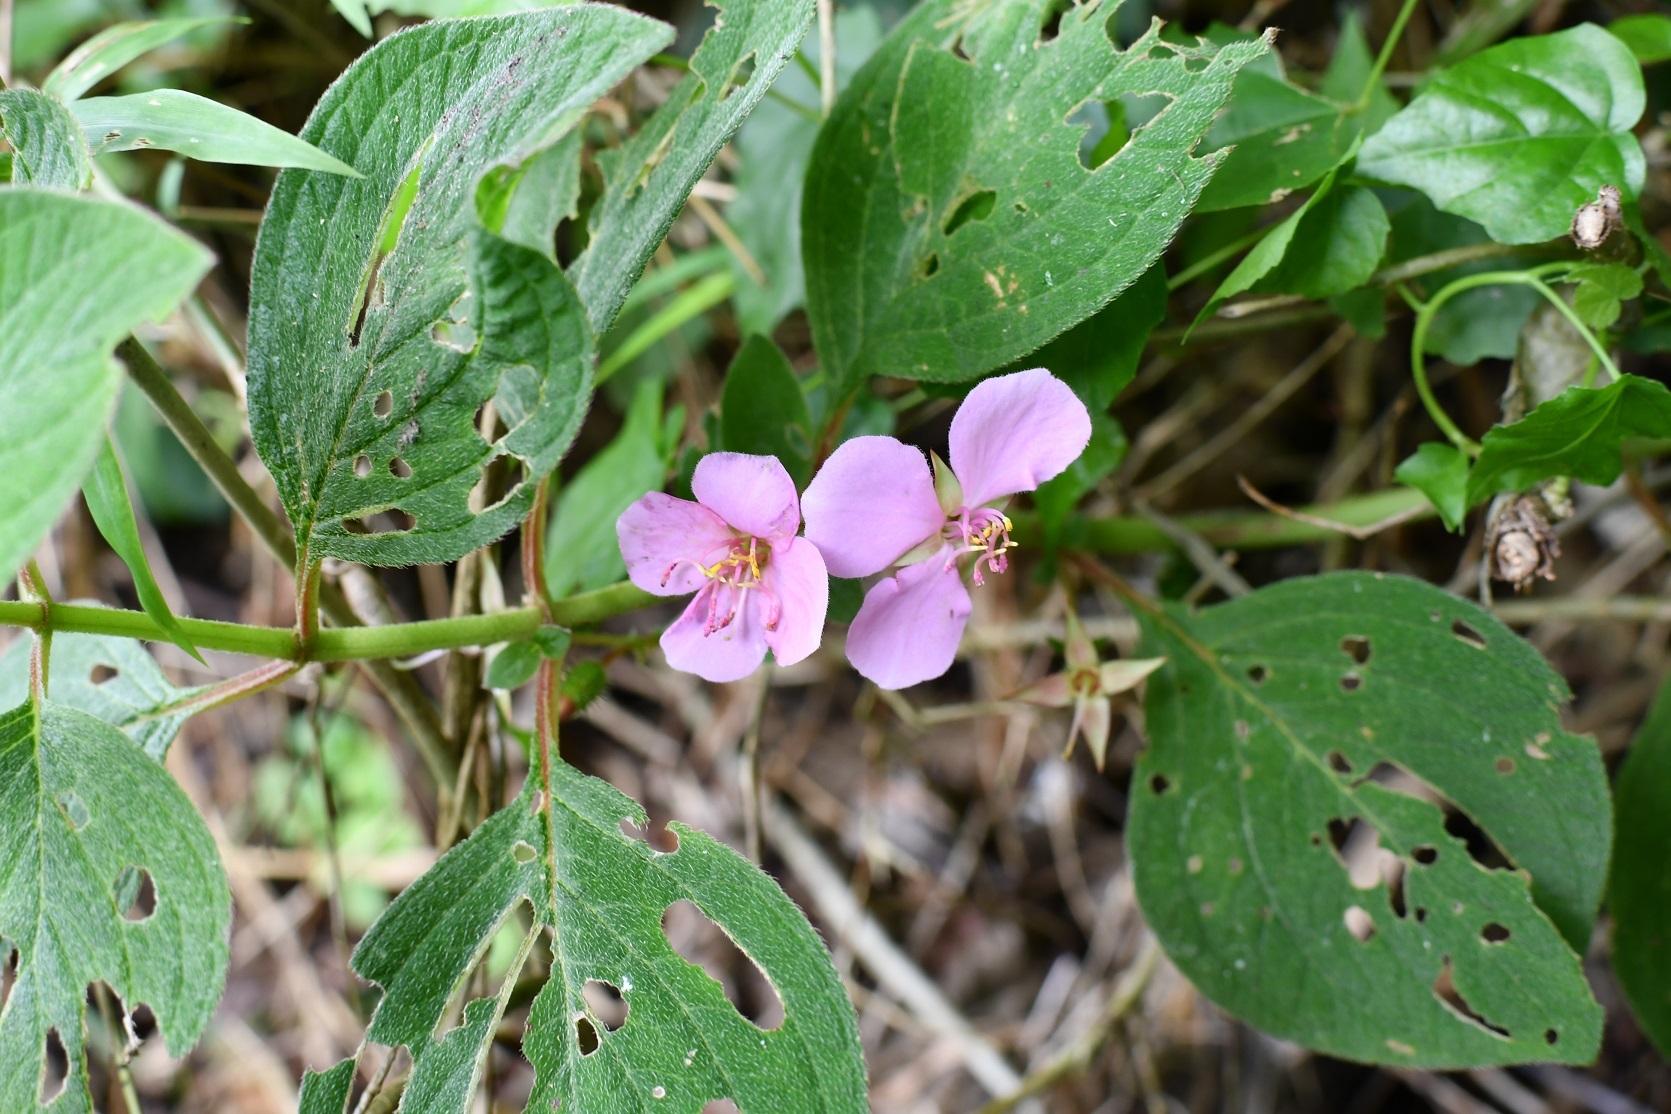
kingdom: Plantae
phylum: Tracheophyta
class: Magnoliopsida
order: Myrtales
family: Melastomataceae
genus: Heterocentron
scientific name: Heterocentron muricatum
